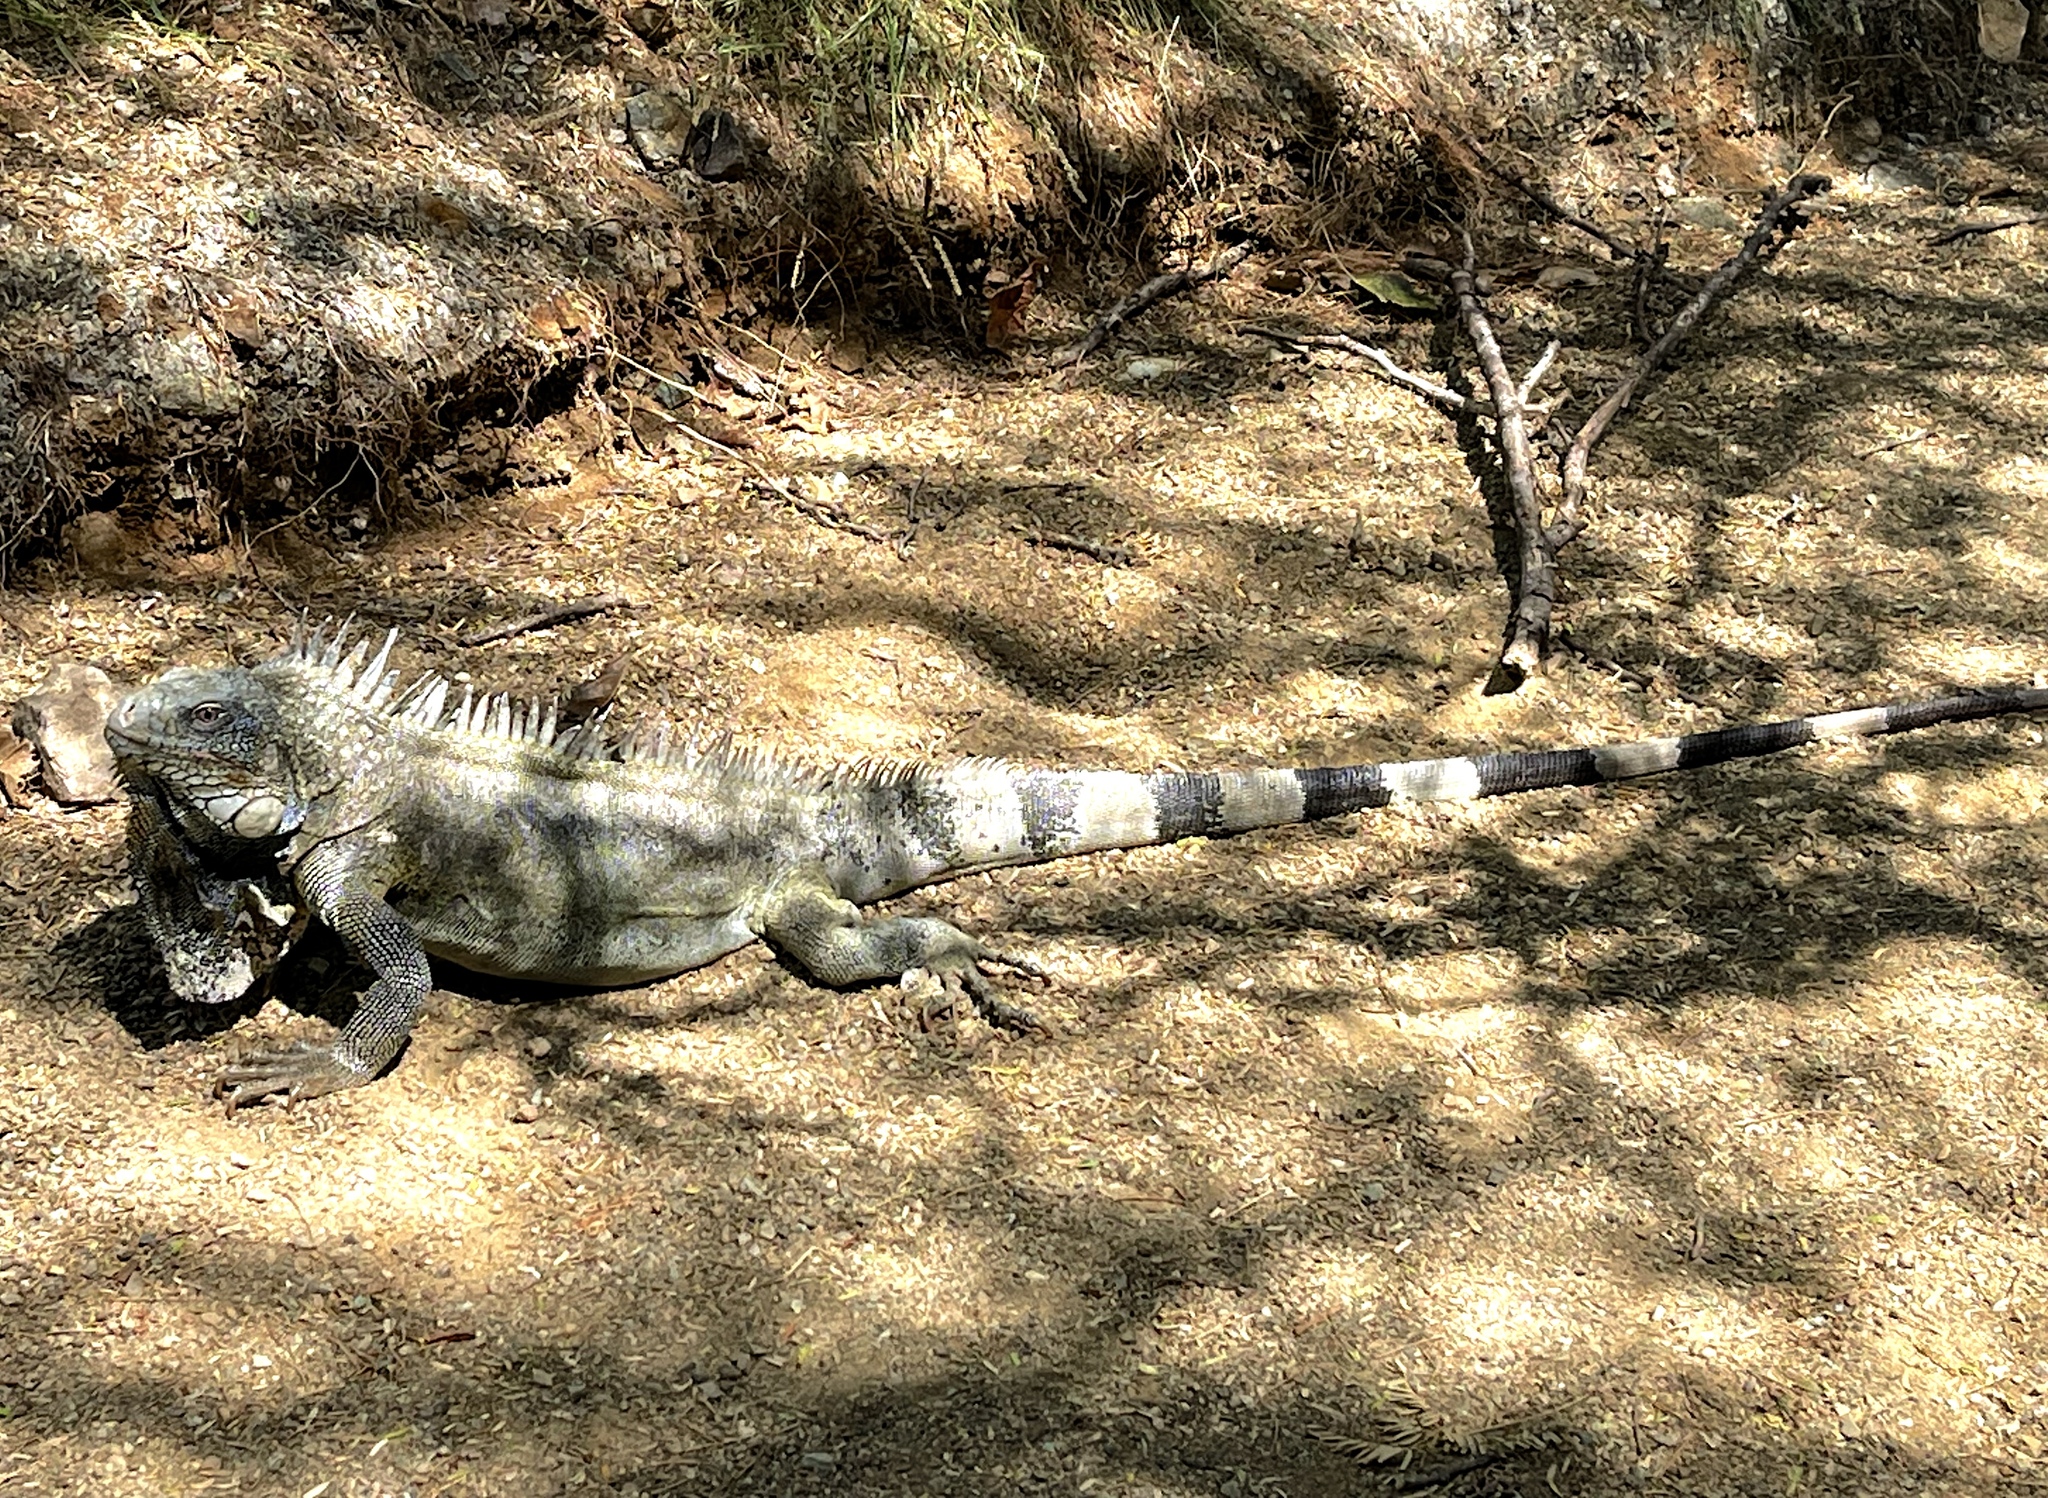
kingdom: Animalia
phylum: Chordata
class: Squamata
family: Iguanidae
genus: Iguana
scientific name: Iguana iguana
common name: Green iguana
